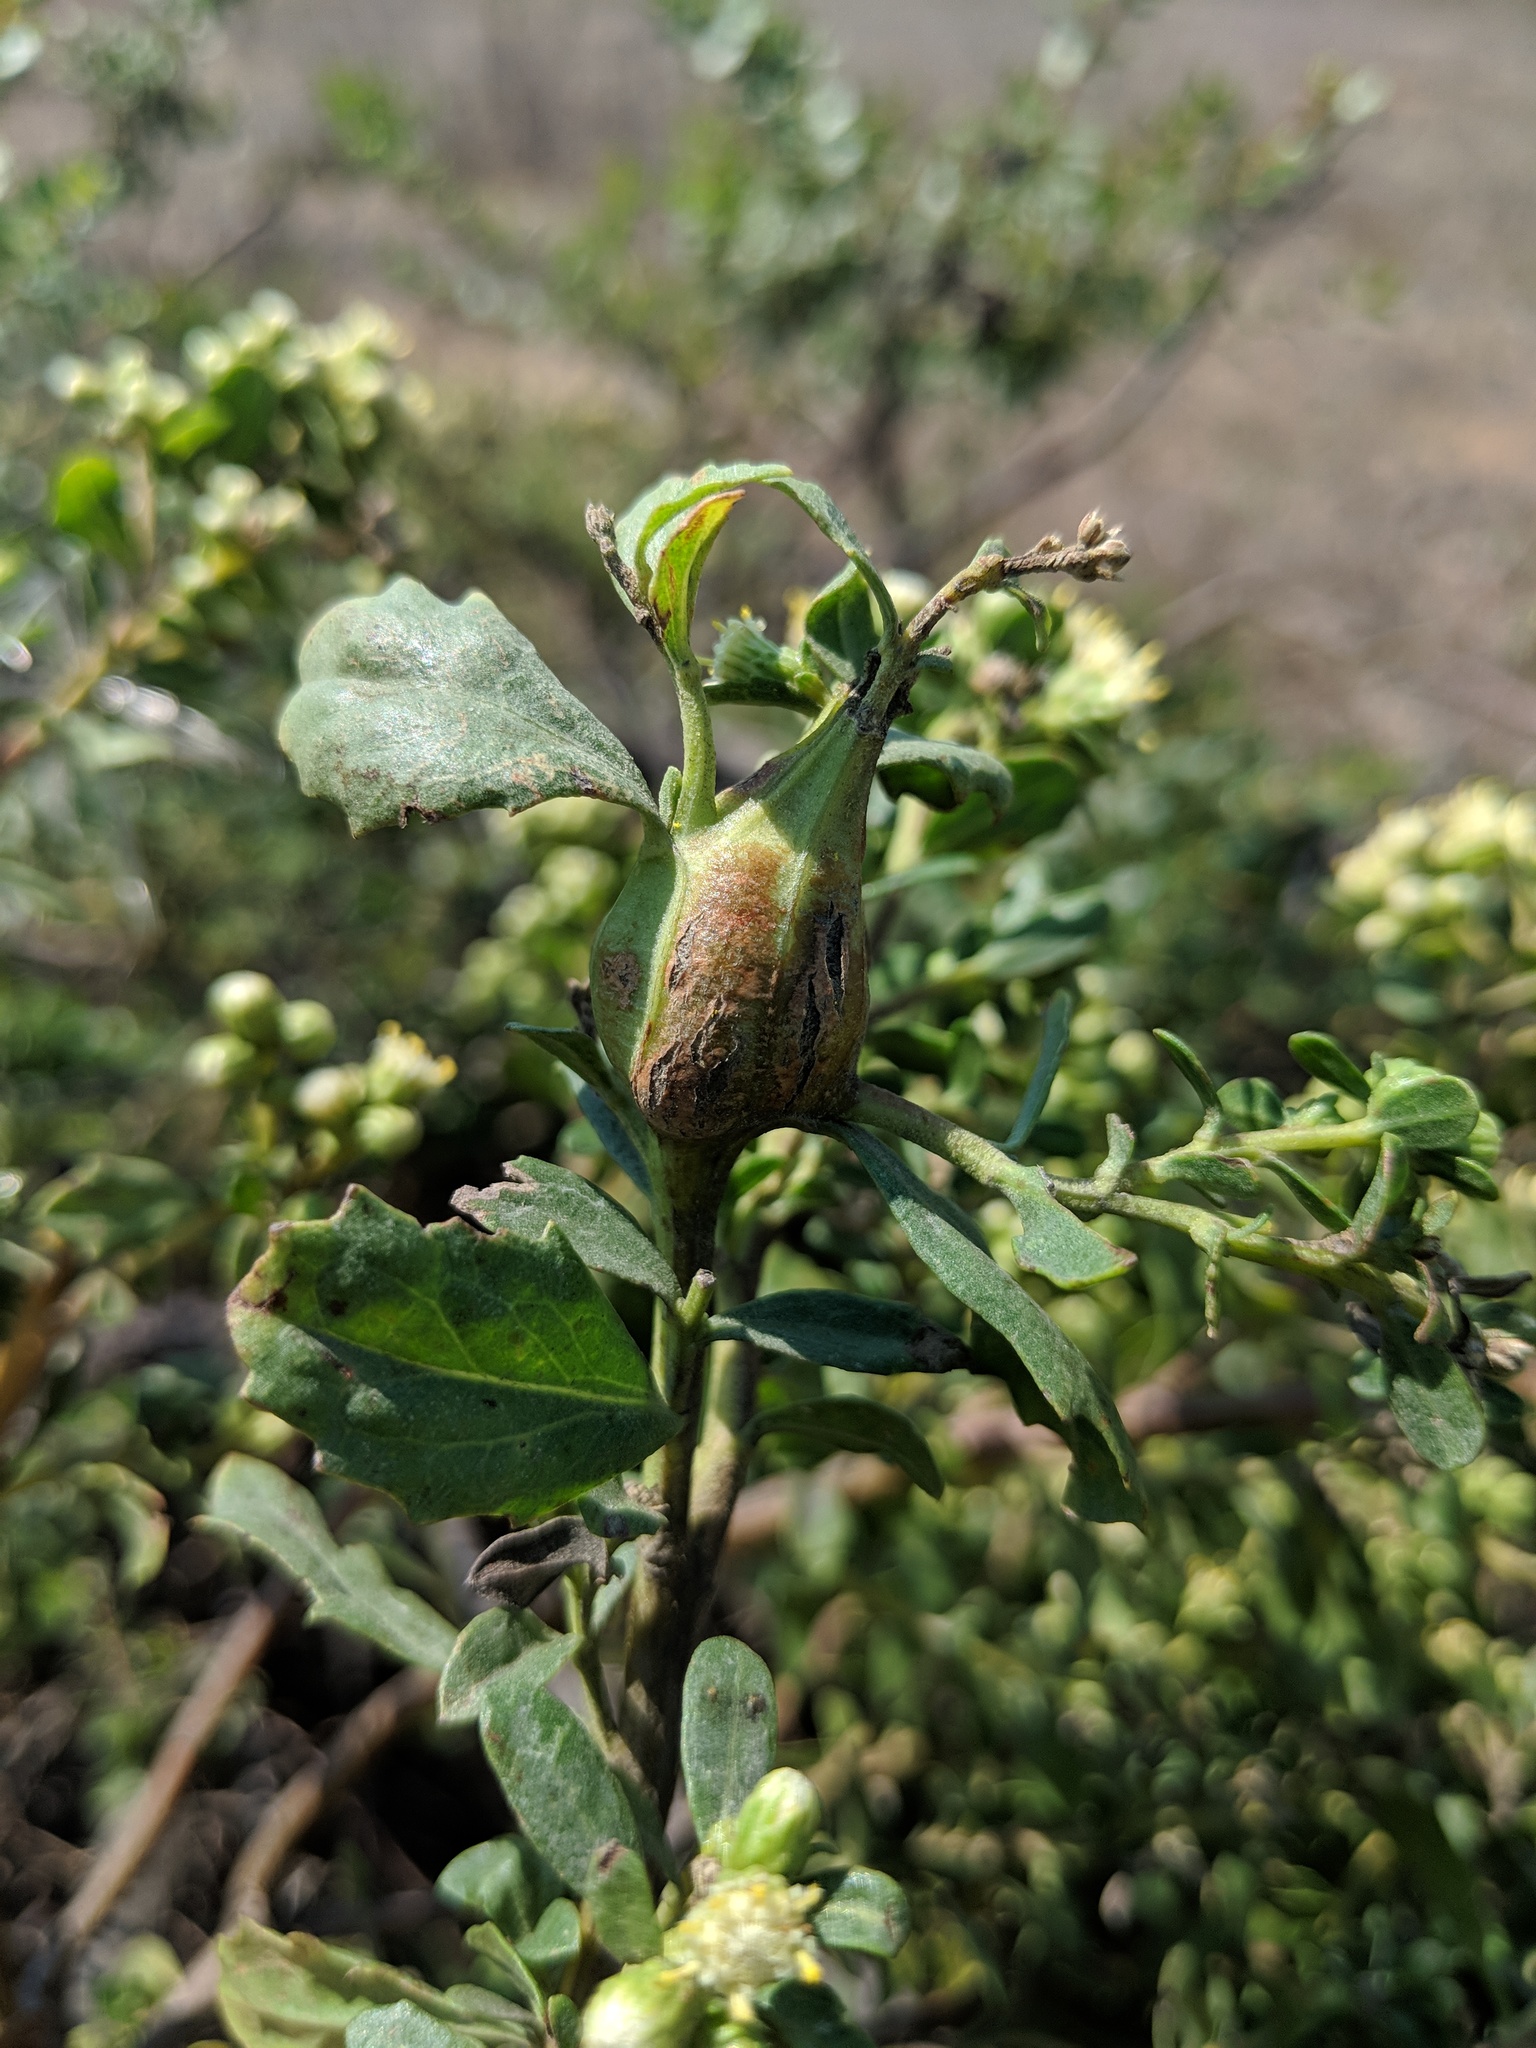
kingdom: Animalia
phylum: Arthropoda
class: Insecta
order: Lepidoptera
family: Gelechiidae
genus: Gnorimoschema
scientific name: Gnorimoschema baccharisella
